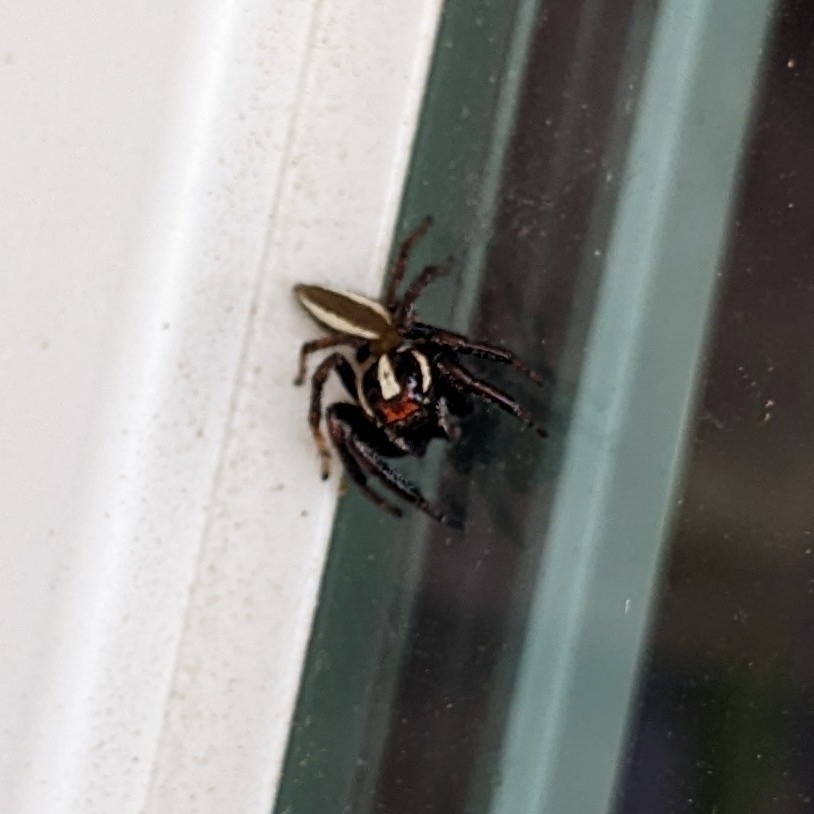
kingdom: Animalia
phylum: Arthropoda
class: Arachnida
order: Araneae
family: Salticidae
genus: Colonus
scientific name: Colonus puerperus
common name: Jumping spiders
